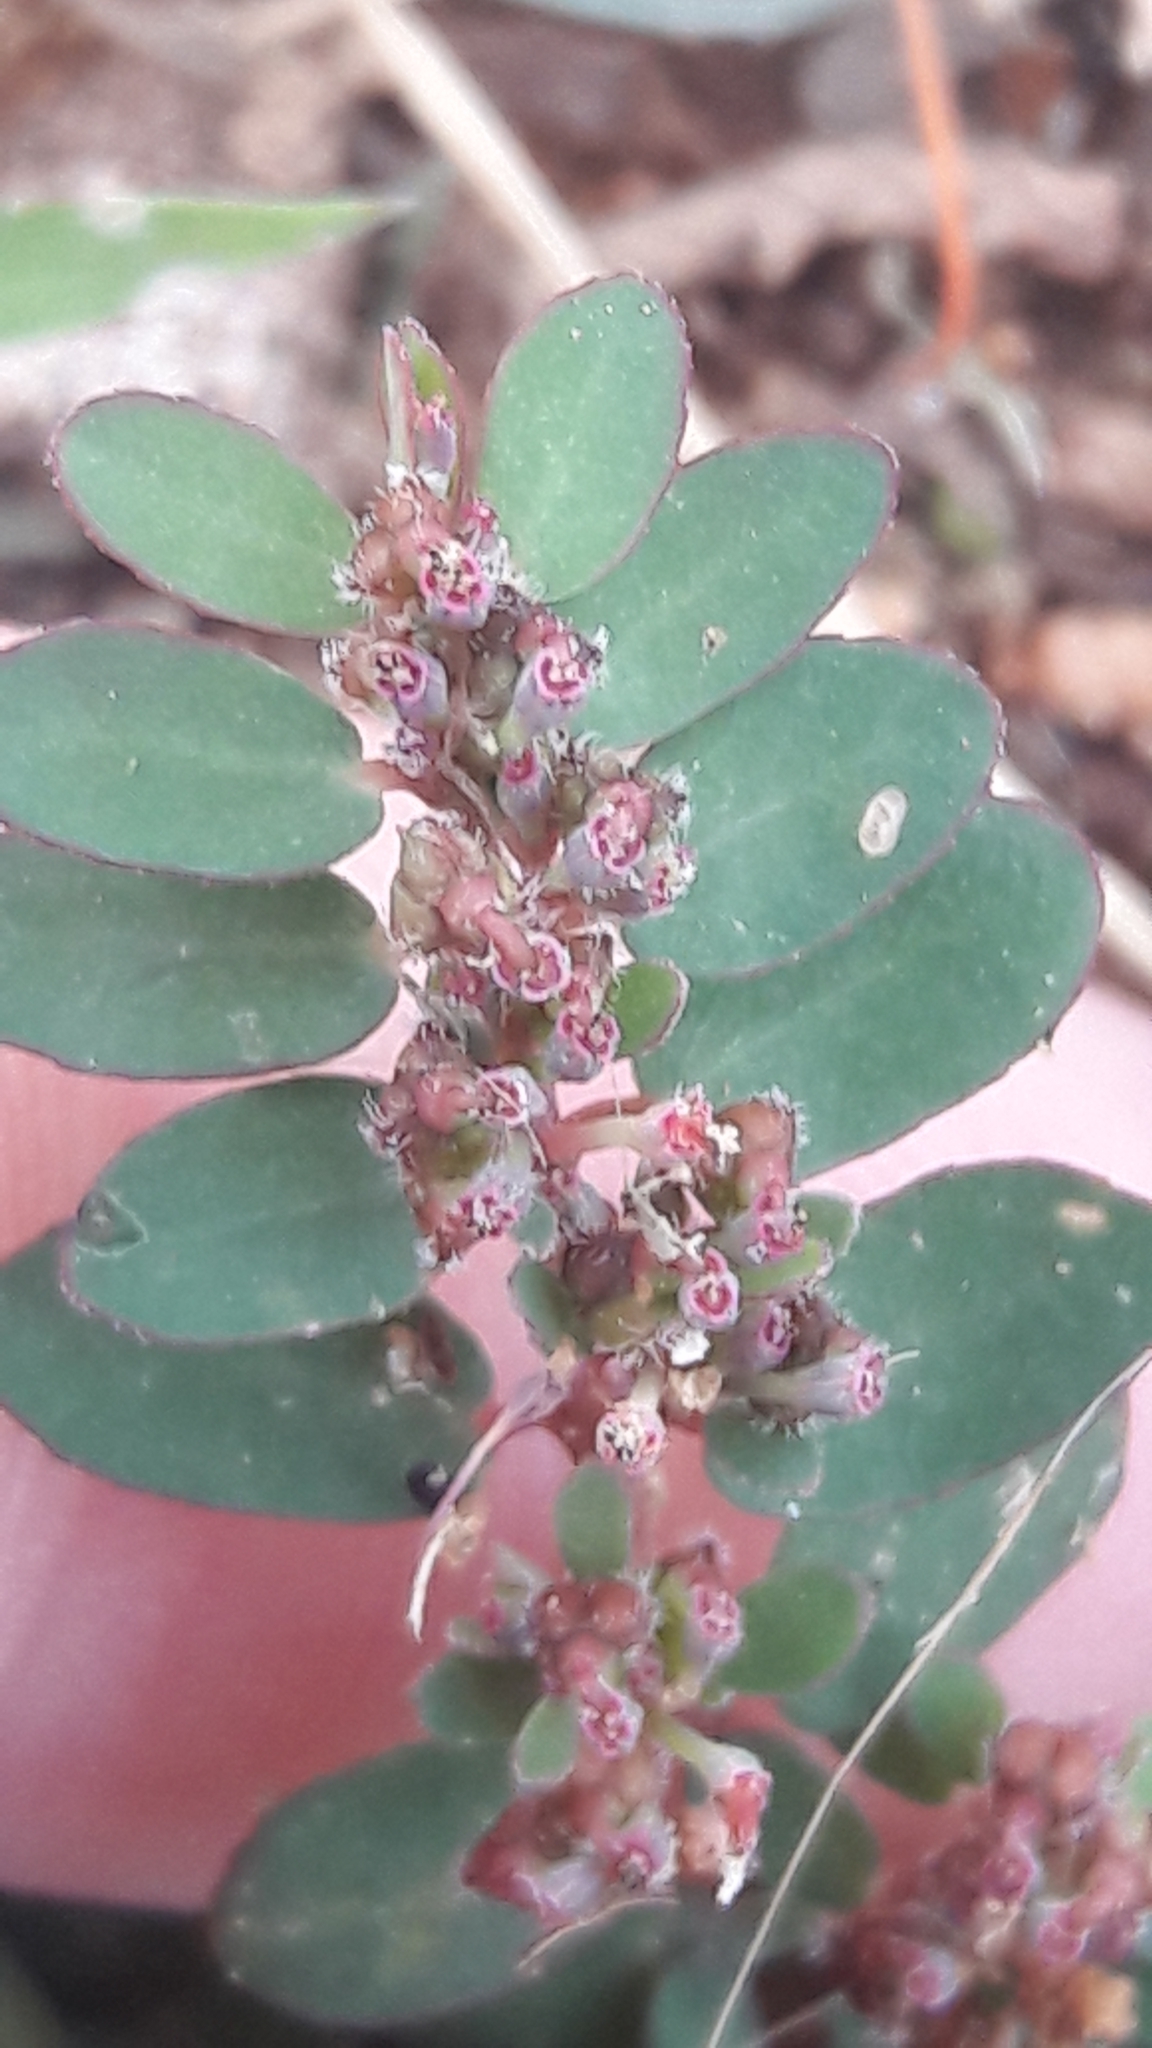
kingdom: Plantae
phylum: Tracheophyta
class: Magnoliopsida
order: Malpighiales
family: Euphorbiaceae
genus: Euphorbia
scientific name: Euphorbia prostrata
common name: Prostrate sandmat
